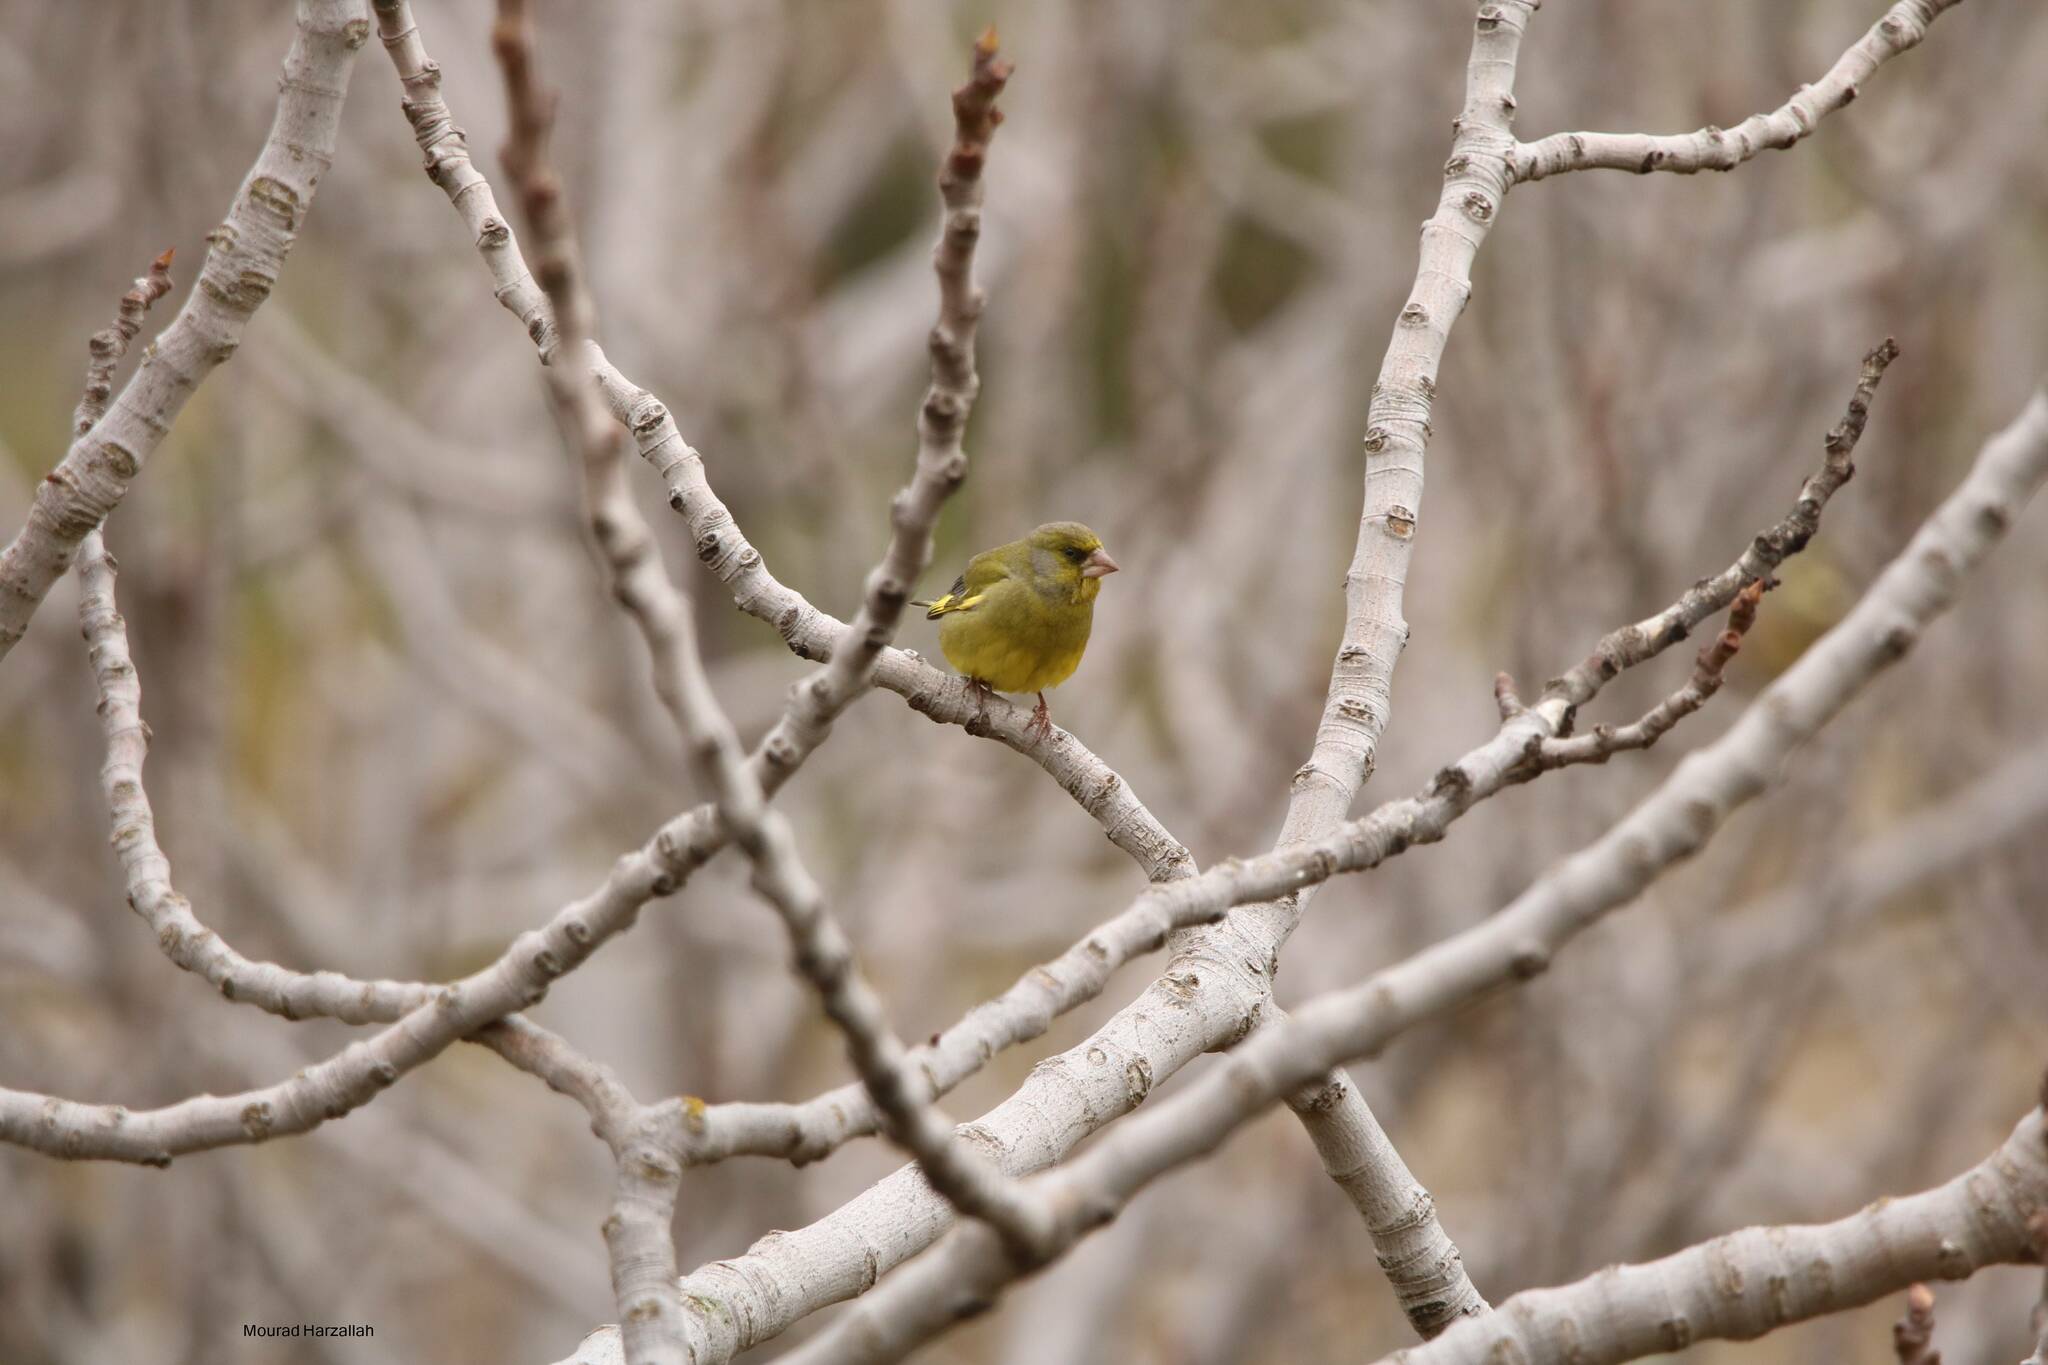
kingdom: Plantae
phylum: Tracheophyta
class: Liliopsida
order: Poales
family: Poaceae
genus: Chloris
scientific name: Chloris chloris
